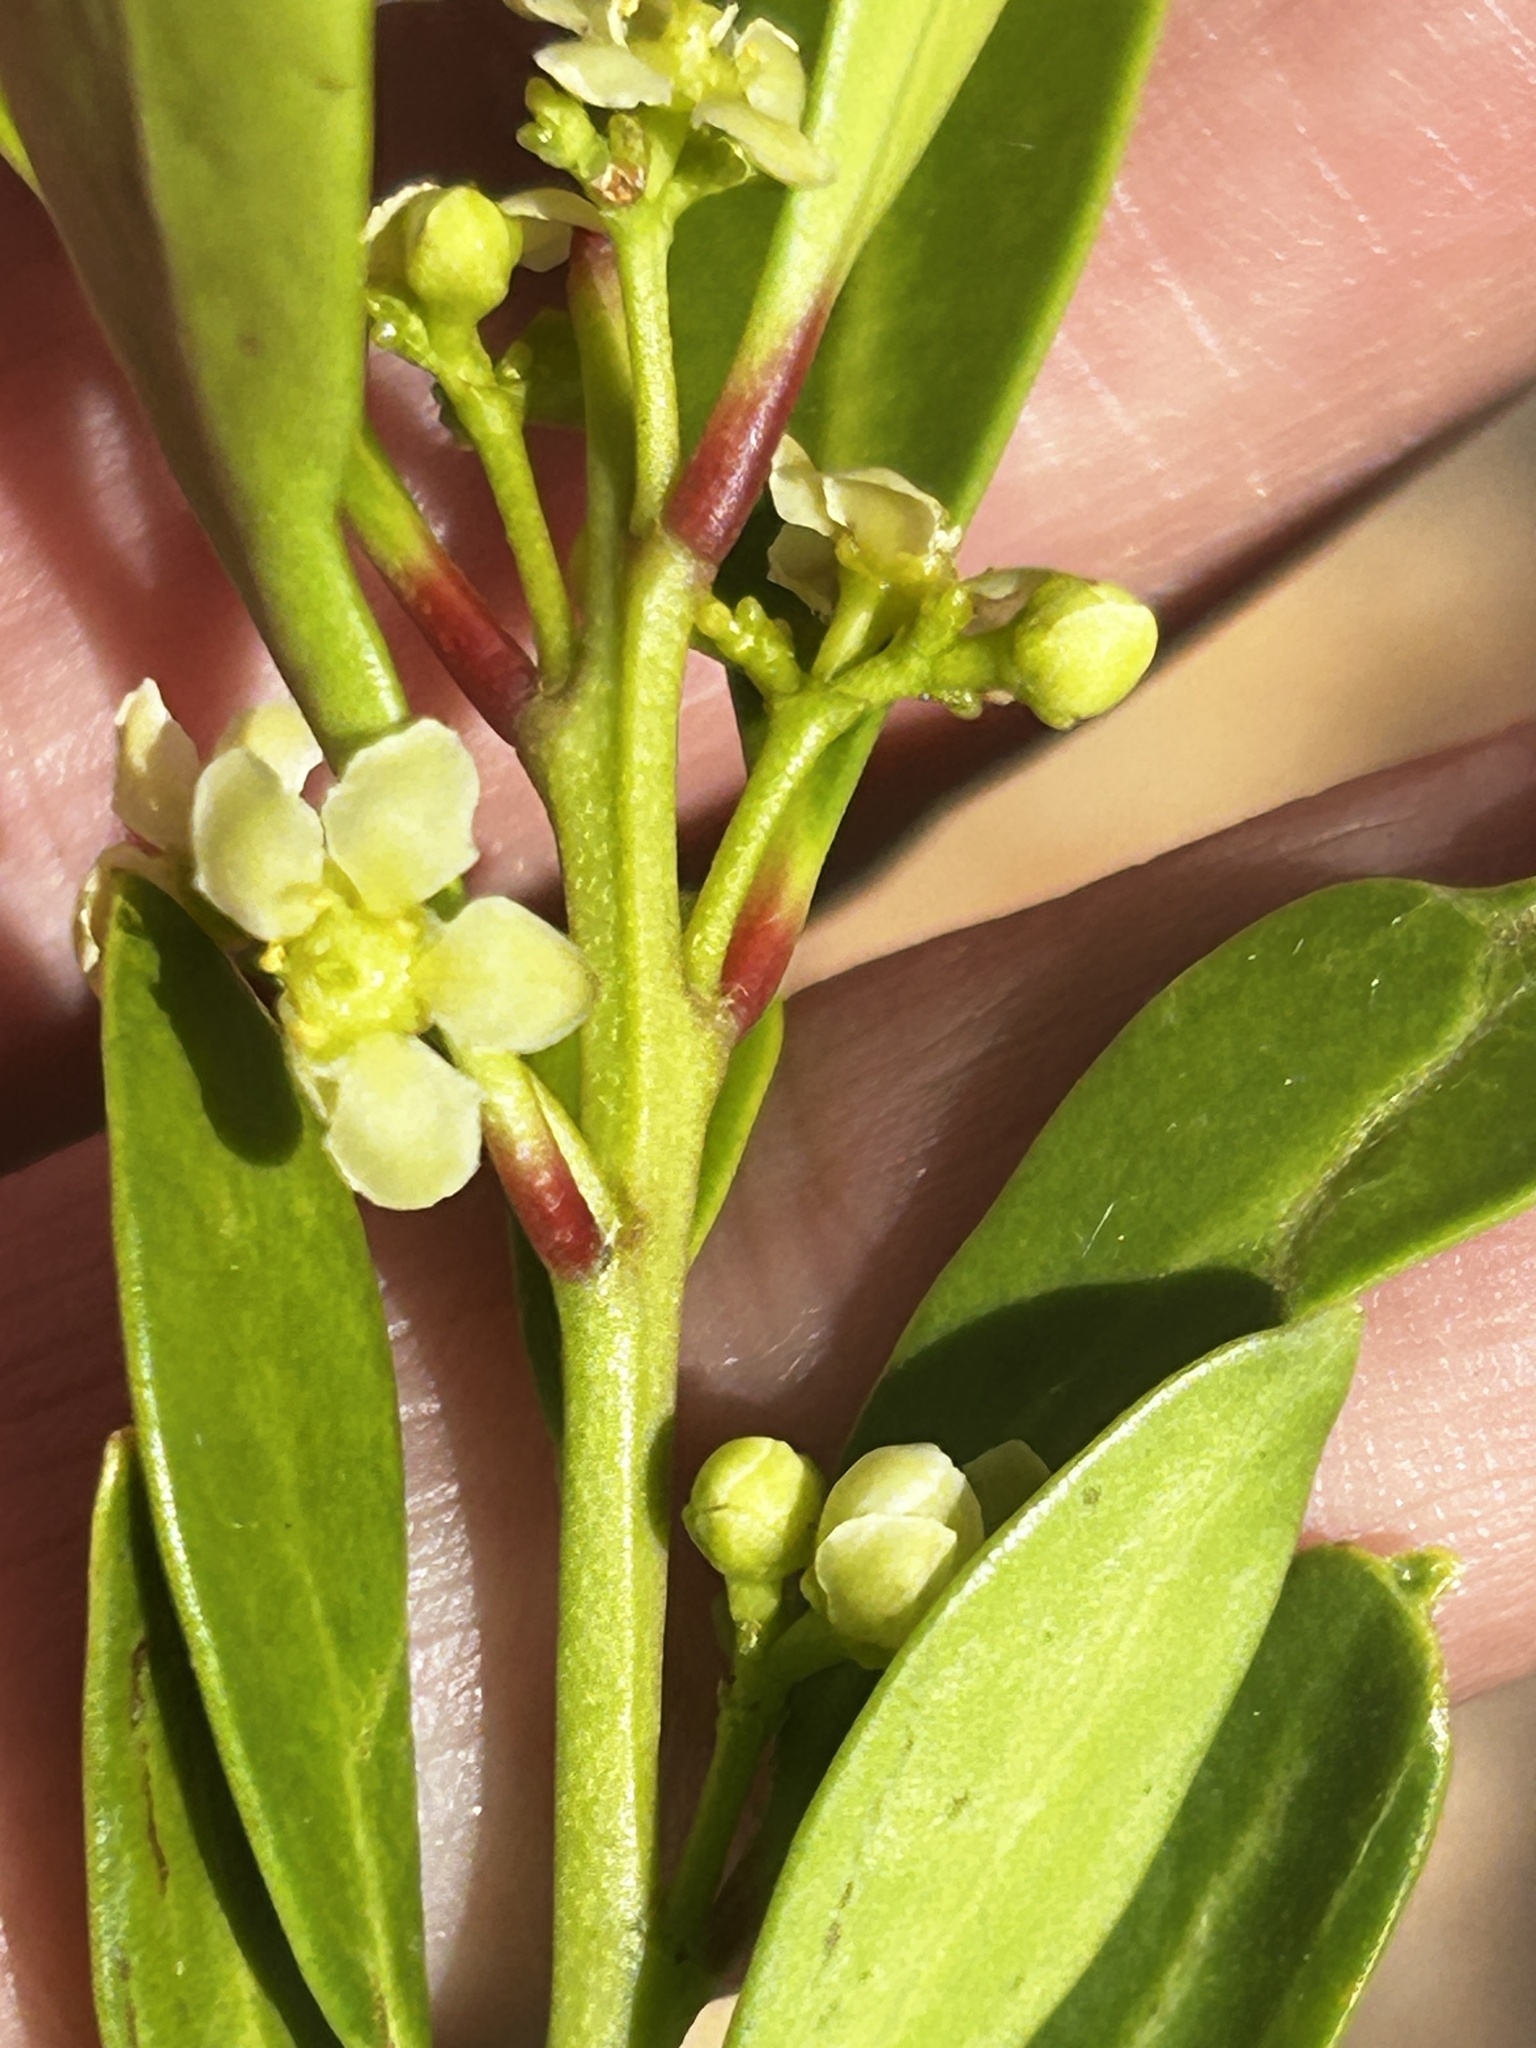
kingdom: Plantae
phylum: Tracheophyta
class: Magnoliopsida
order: Celastrales
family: Celastraceae
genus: Gymnosporia
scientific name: Gymnosporia laurina
